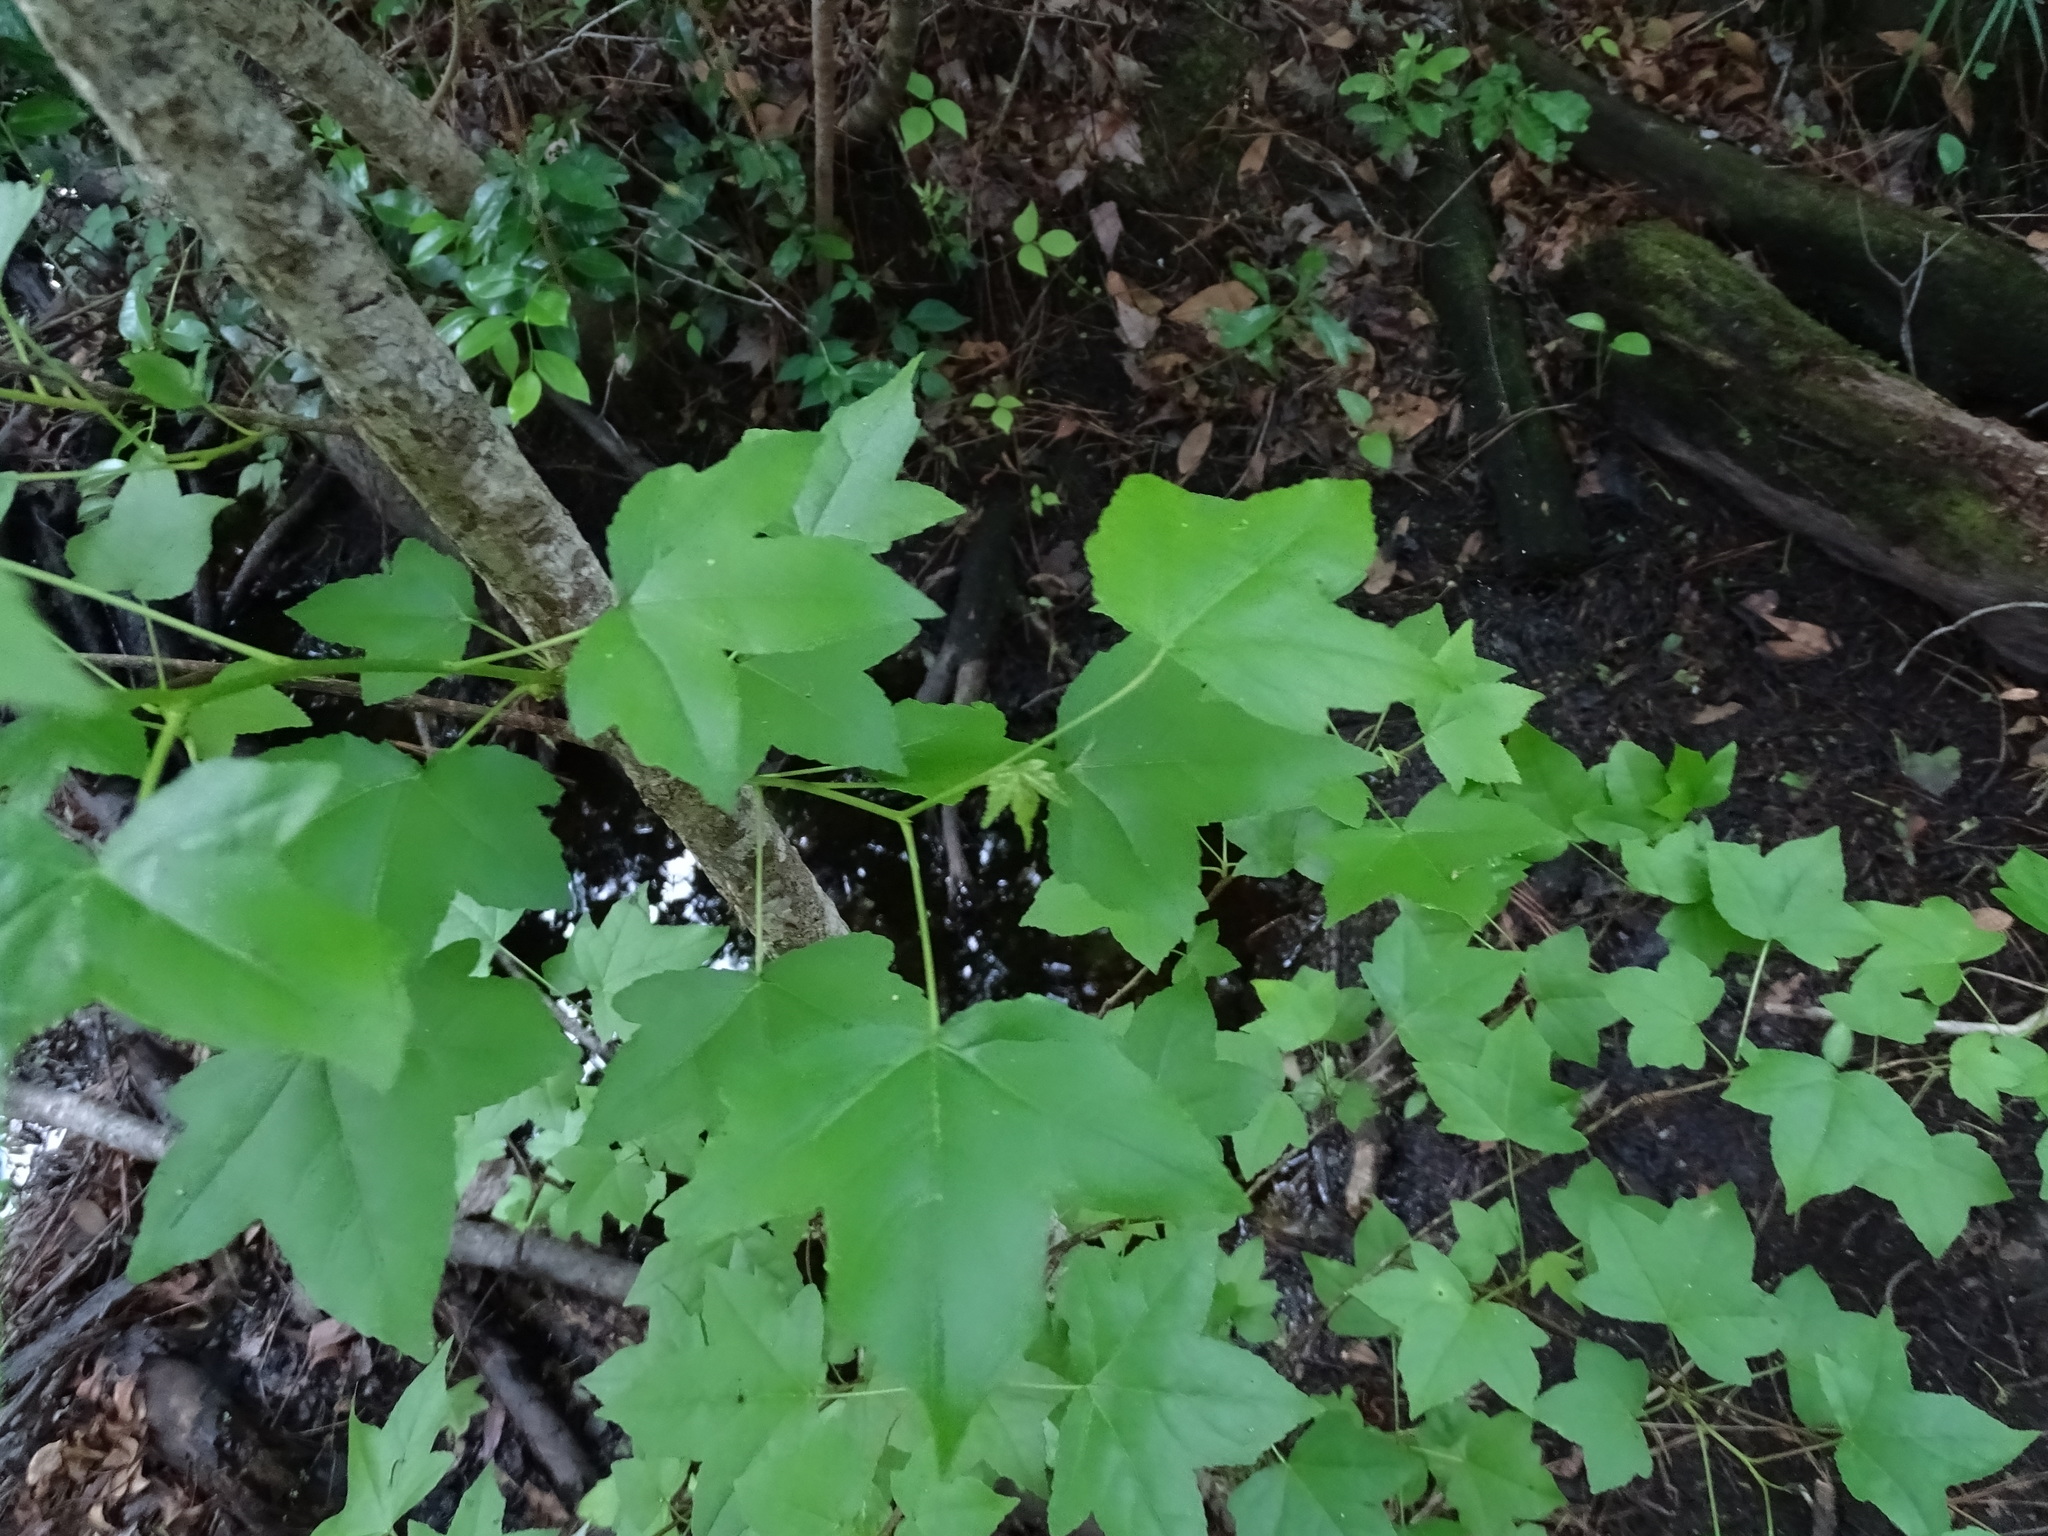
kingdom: Plantae
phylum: Tracheophyta
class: Magnoliopsida
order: Saxifragales
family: Altingiaceae
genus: Liquidambar
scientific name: Liquidambar styraciflua
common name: Sweet gum
